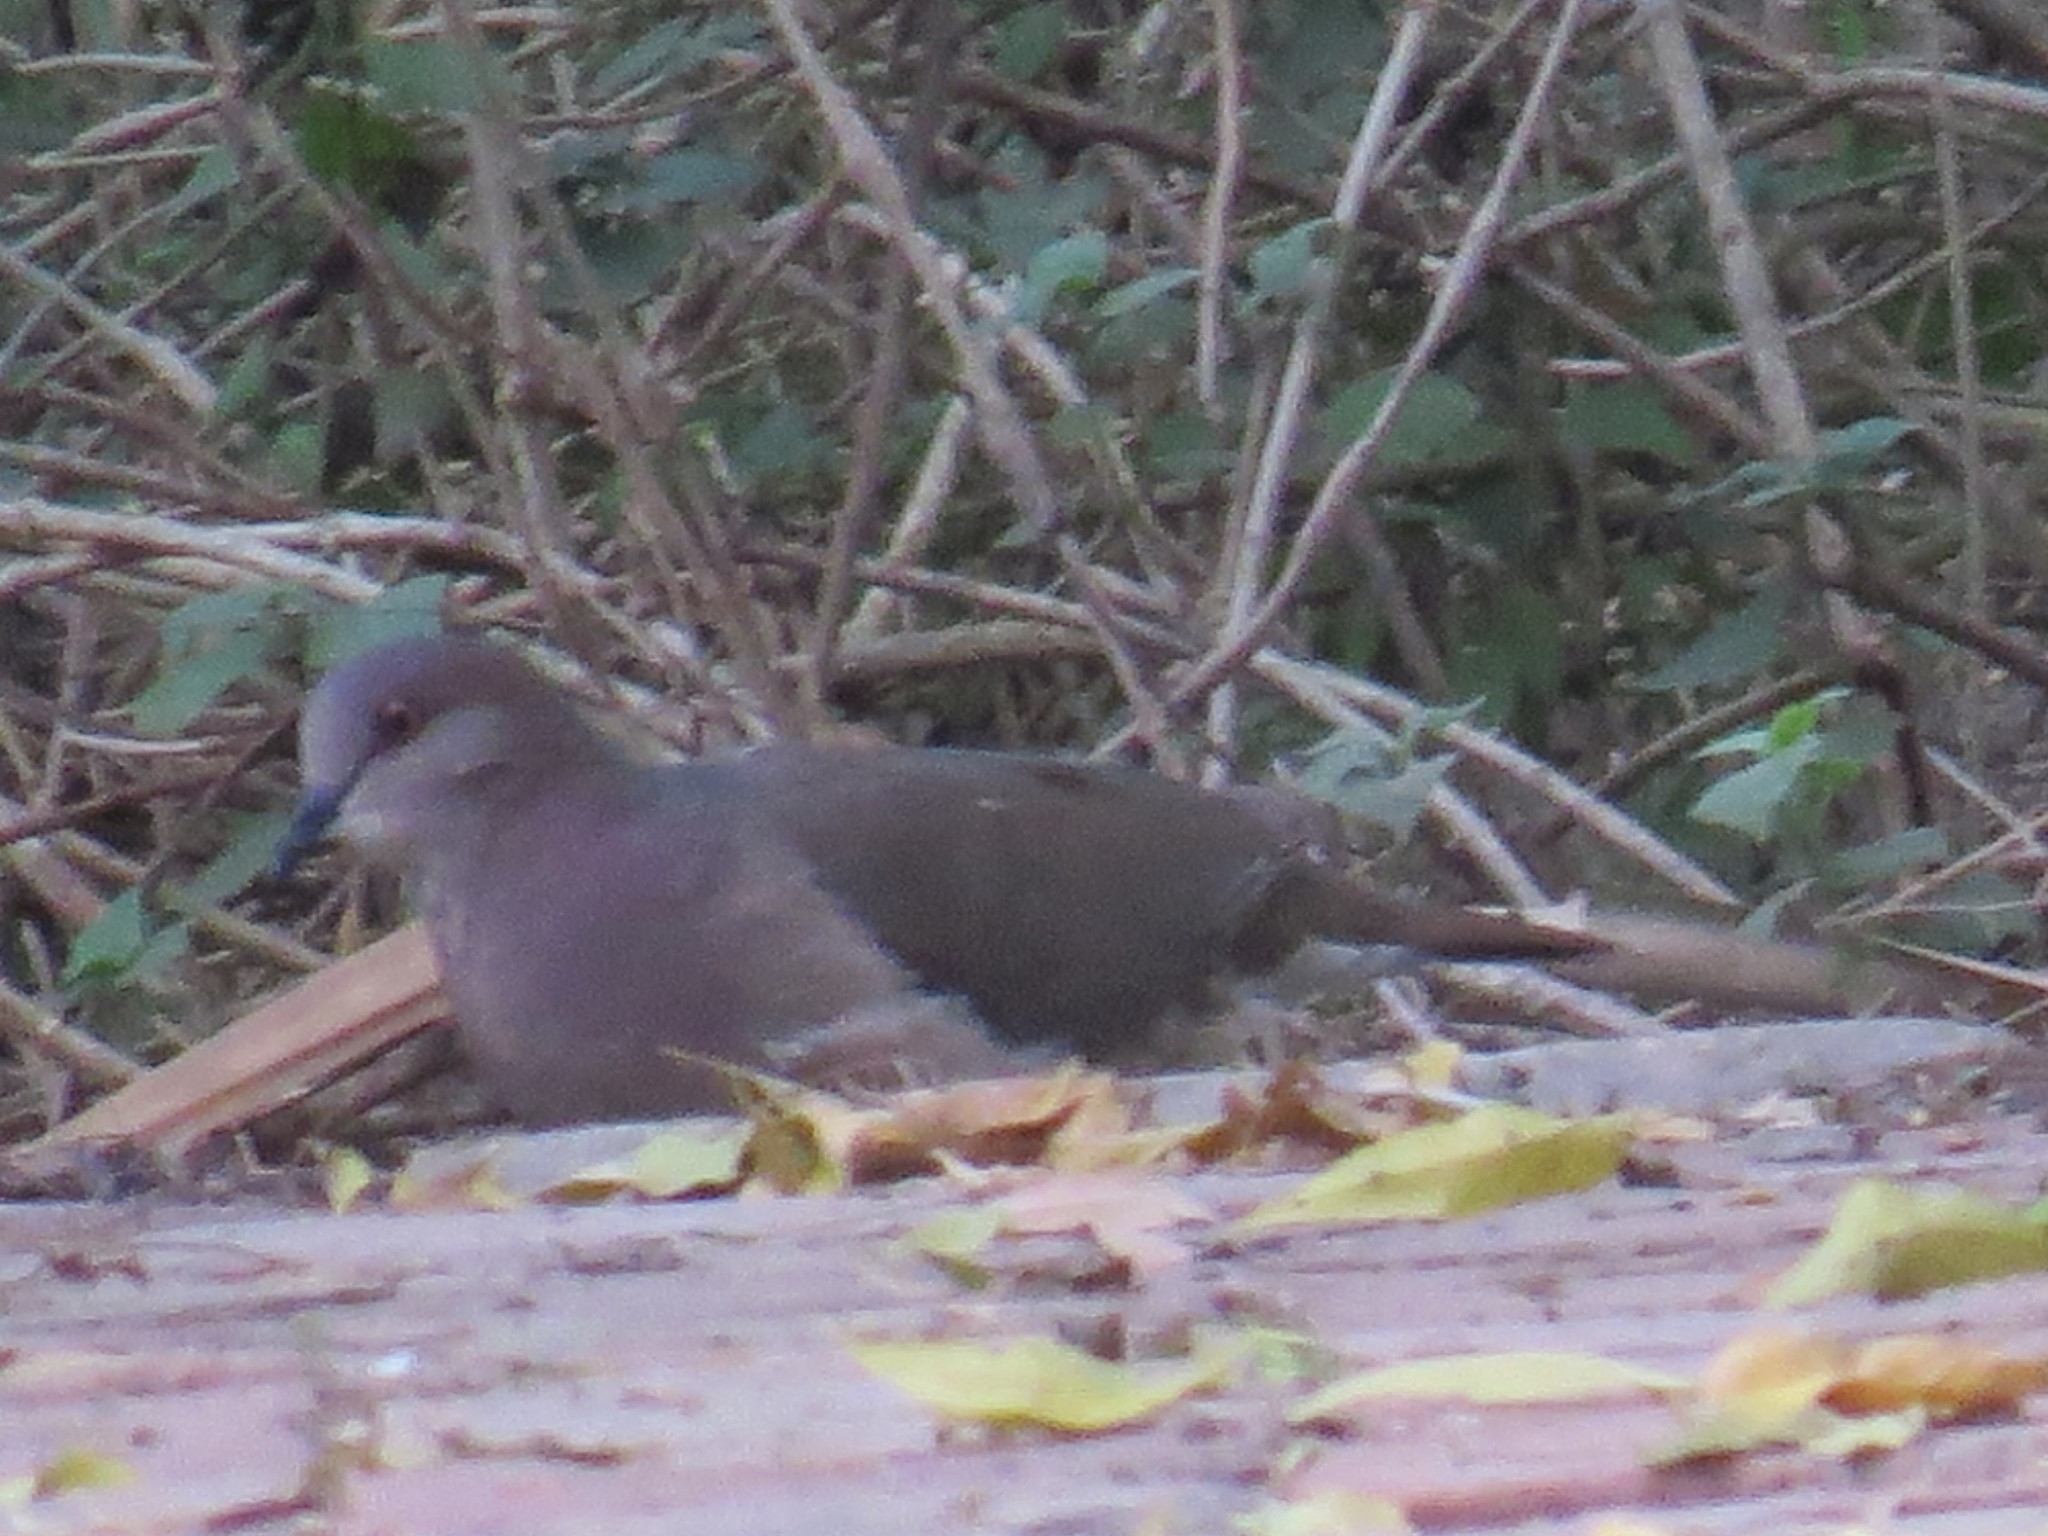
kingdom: Animalia
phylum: Chordata
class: Aves
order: Columbiformes
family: Columbidae
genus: Leptotila
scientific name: Leptotila verreauxi
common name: White-tipped dove
